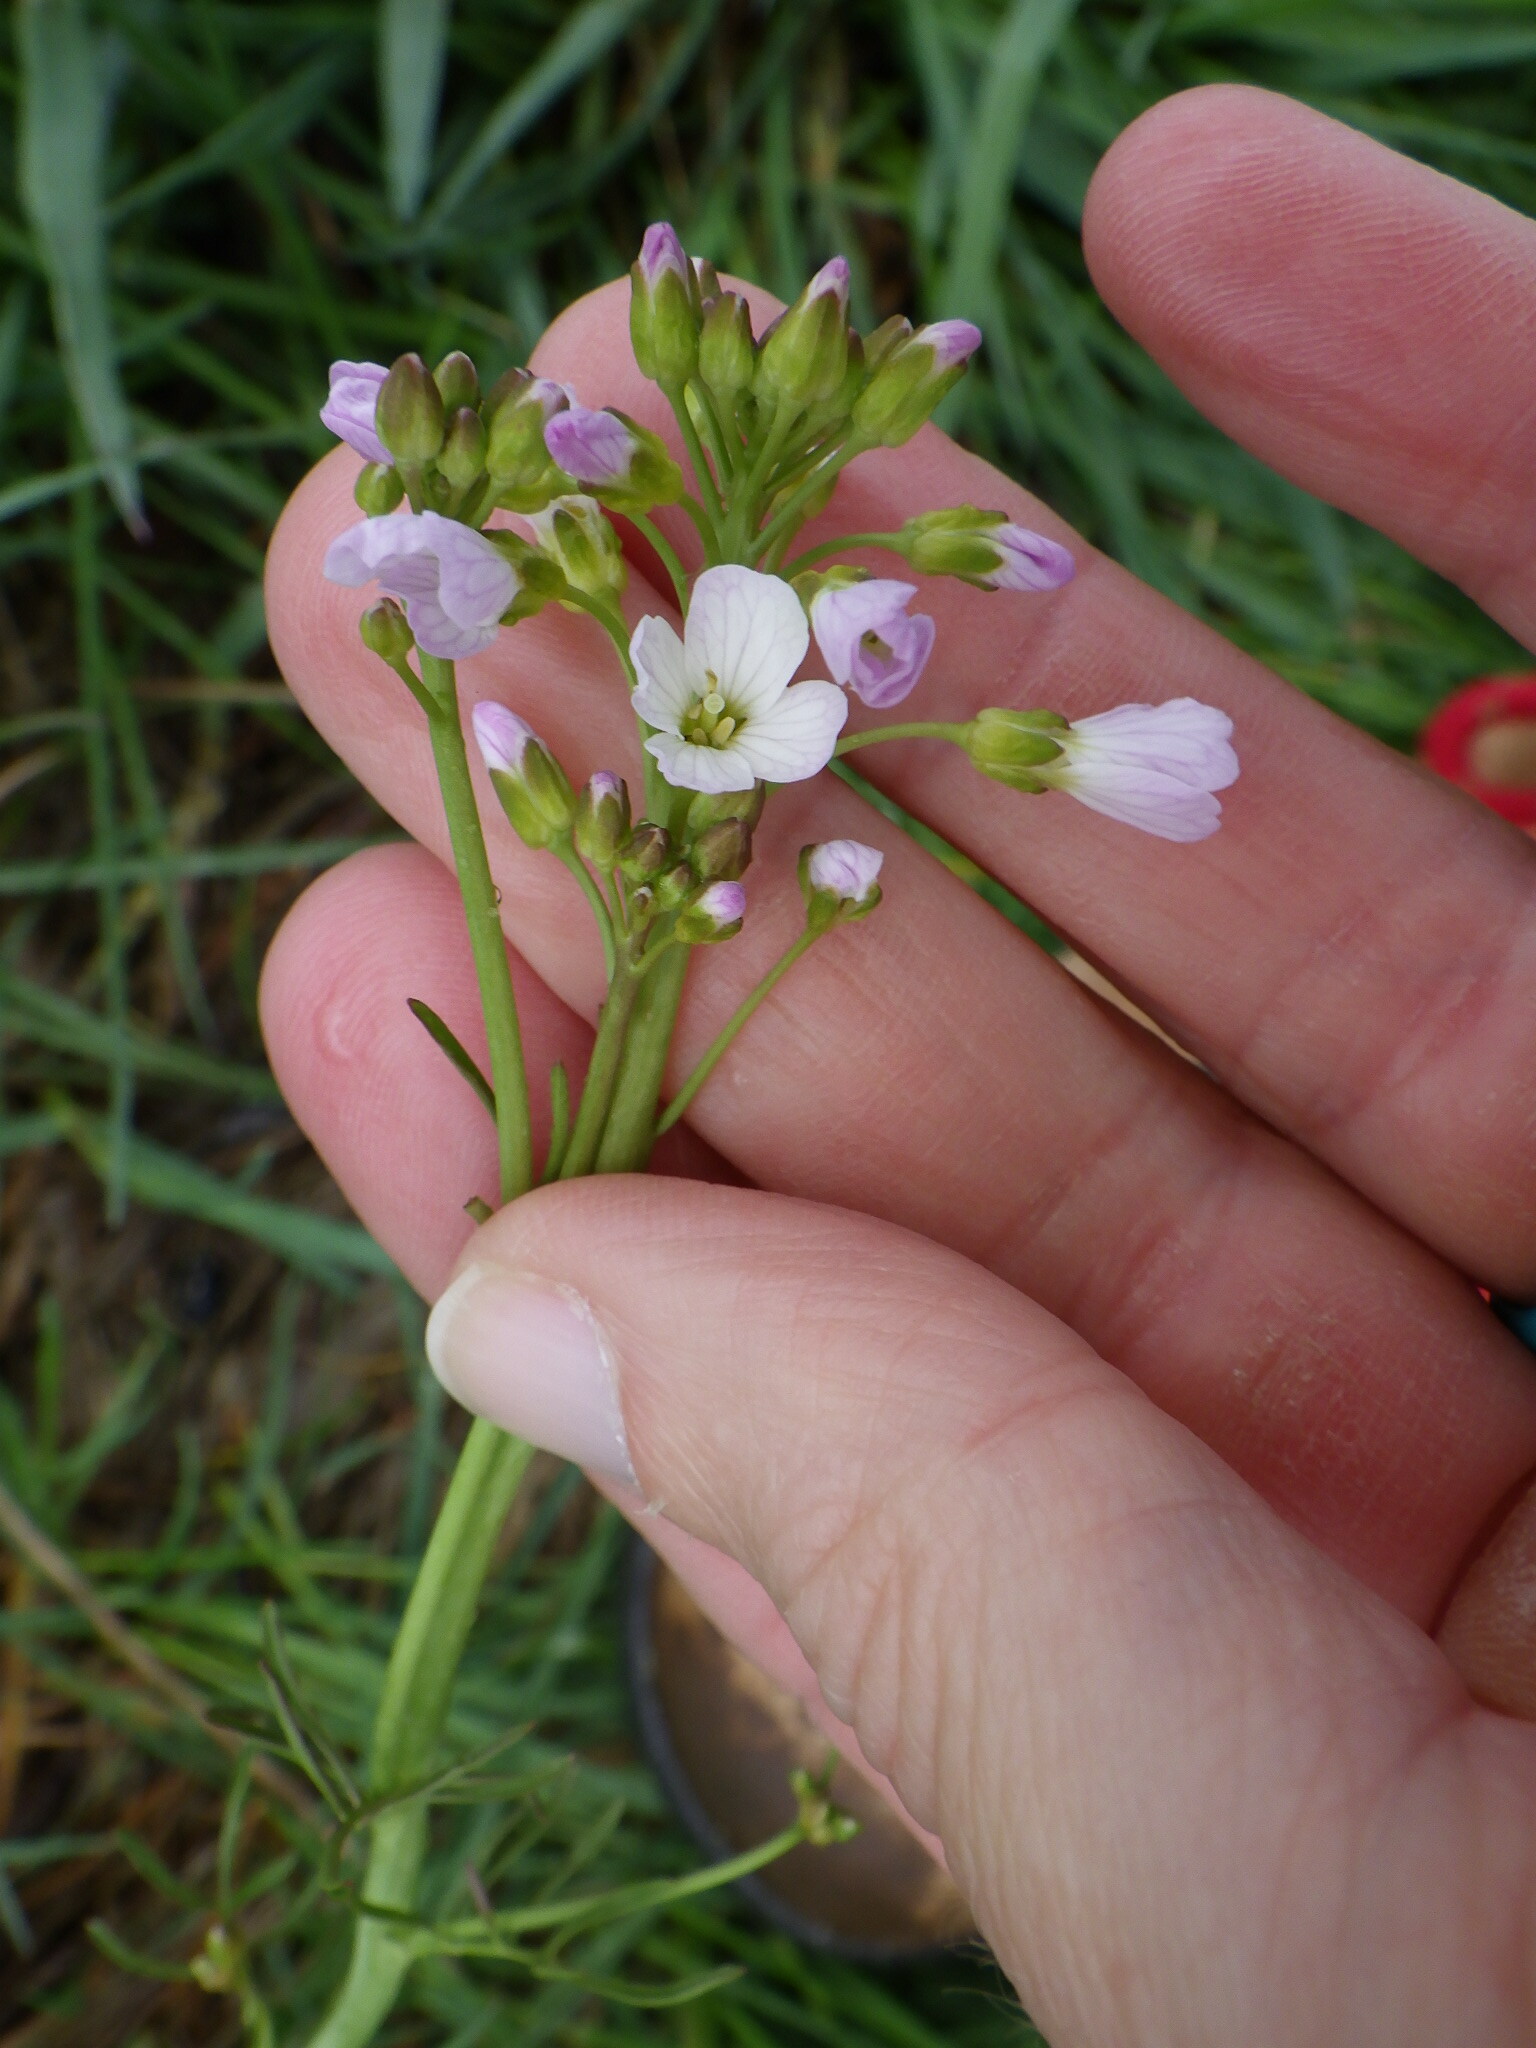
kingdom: Plantae
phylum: Tracheophyta
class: Magnoliopsida
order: Brassicales
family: Brassicaceae
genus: Cardamine
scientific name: Cardamine pratensis
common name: Cuckoo flower
